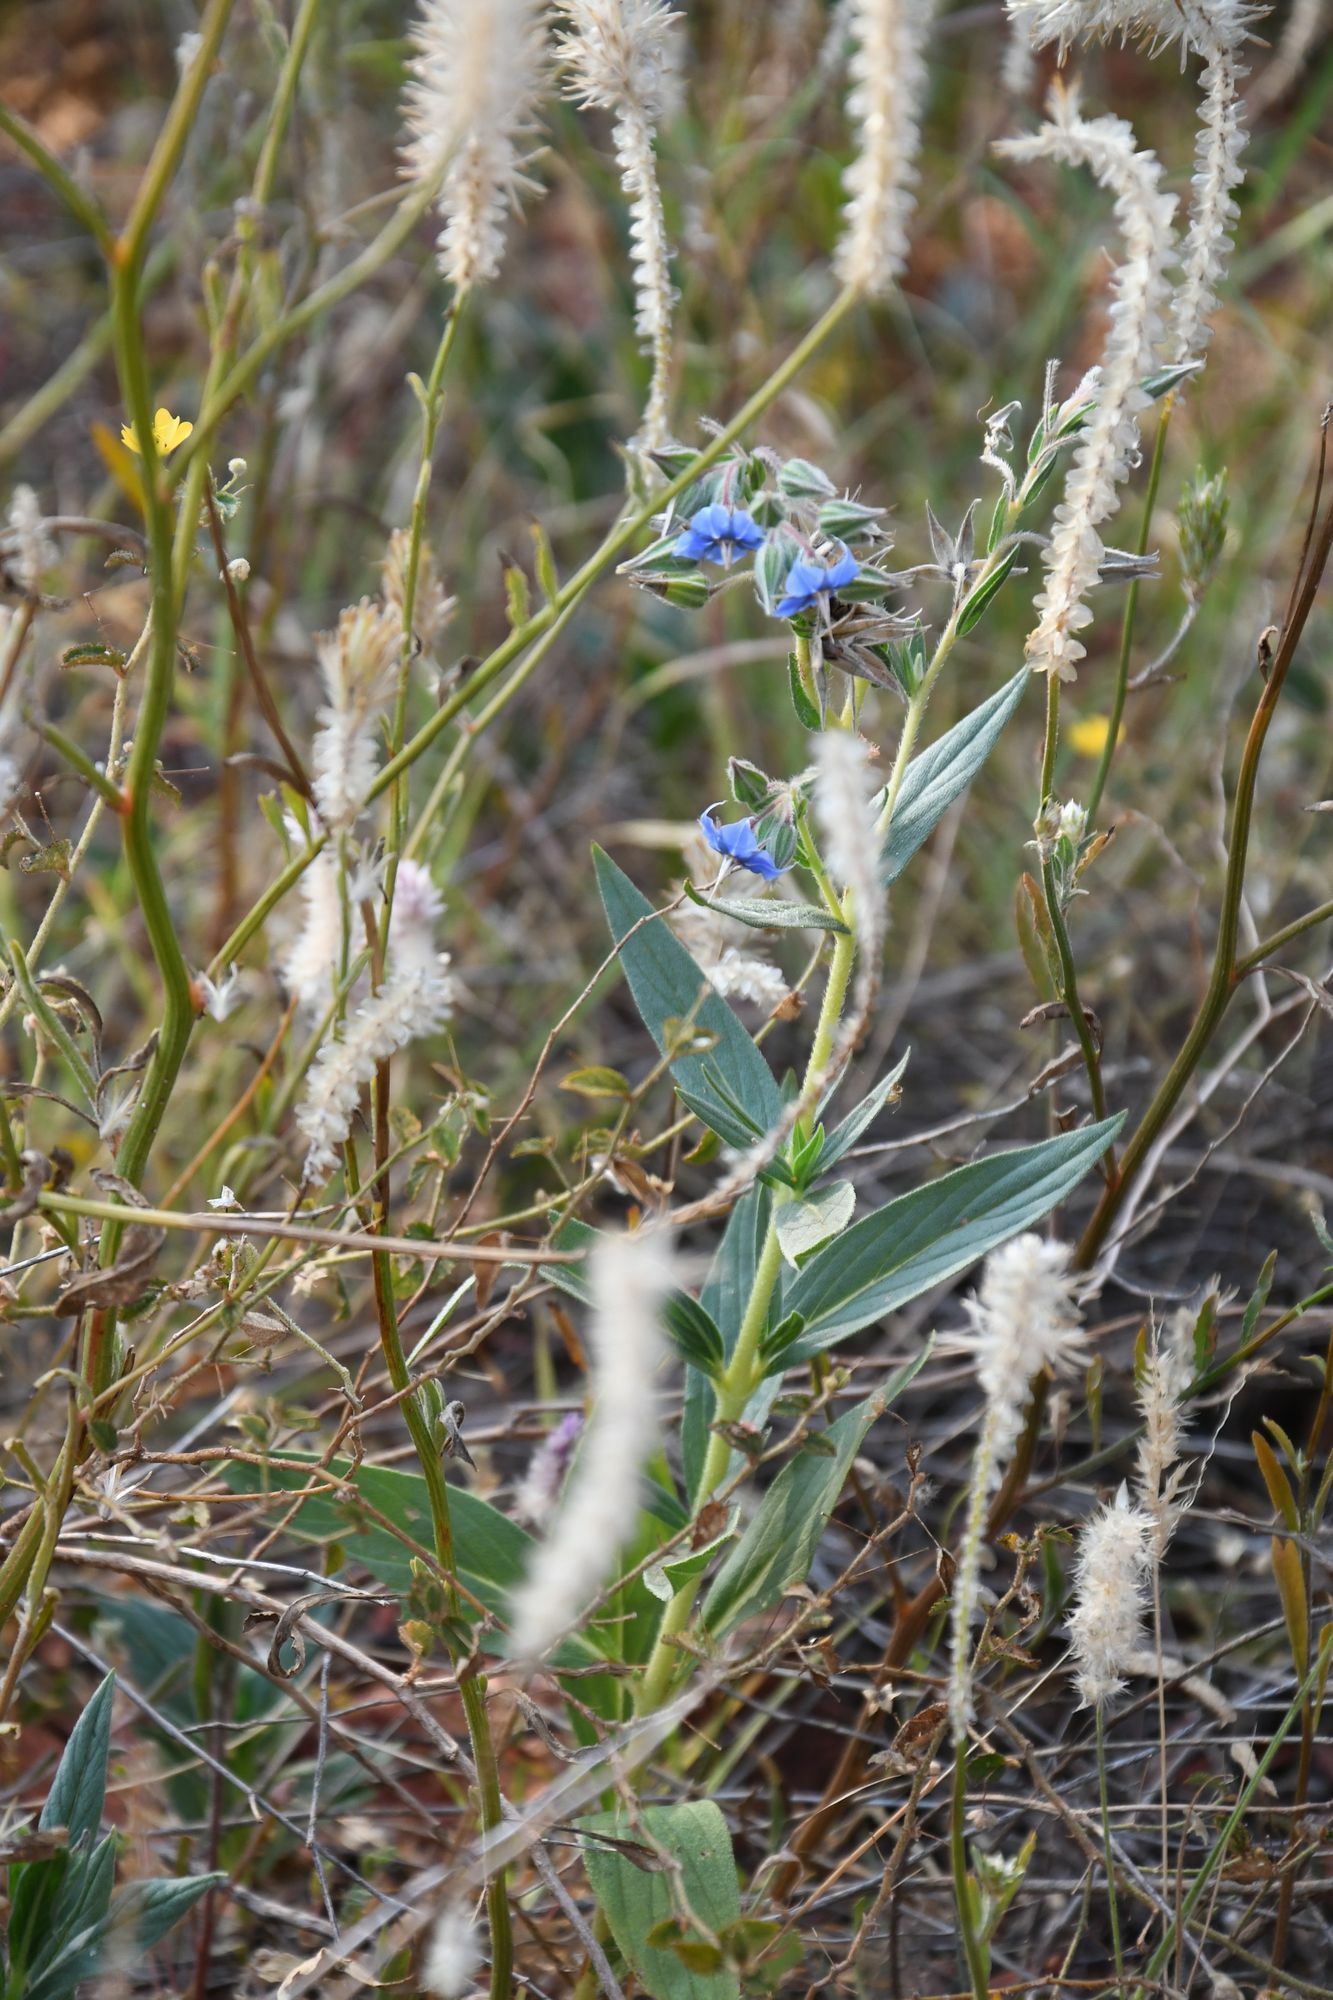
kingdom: Plantae
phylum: Tracheophyta
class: Magnoliopsida
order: Boraginales
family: Boraginaceae
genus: Trichodesma
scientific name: Trichodesma zeylanicum
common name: Camelbush
